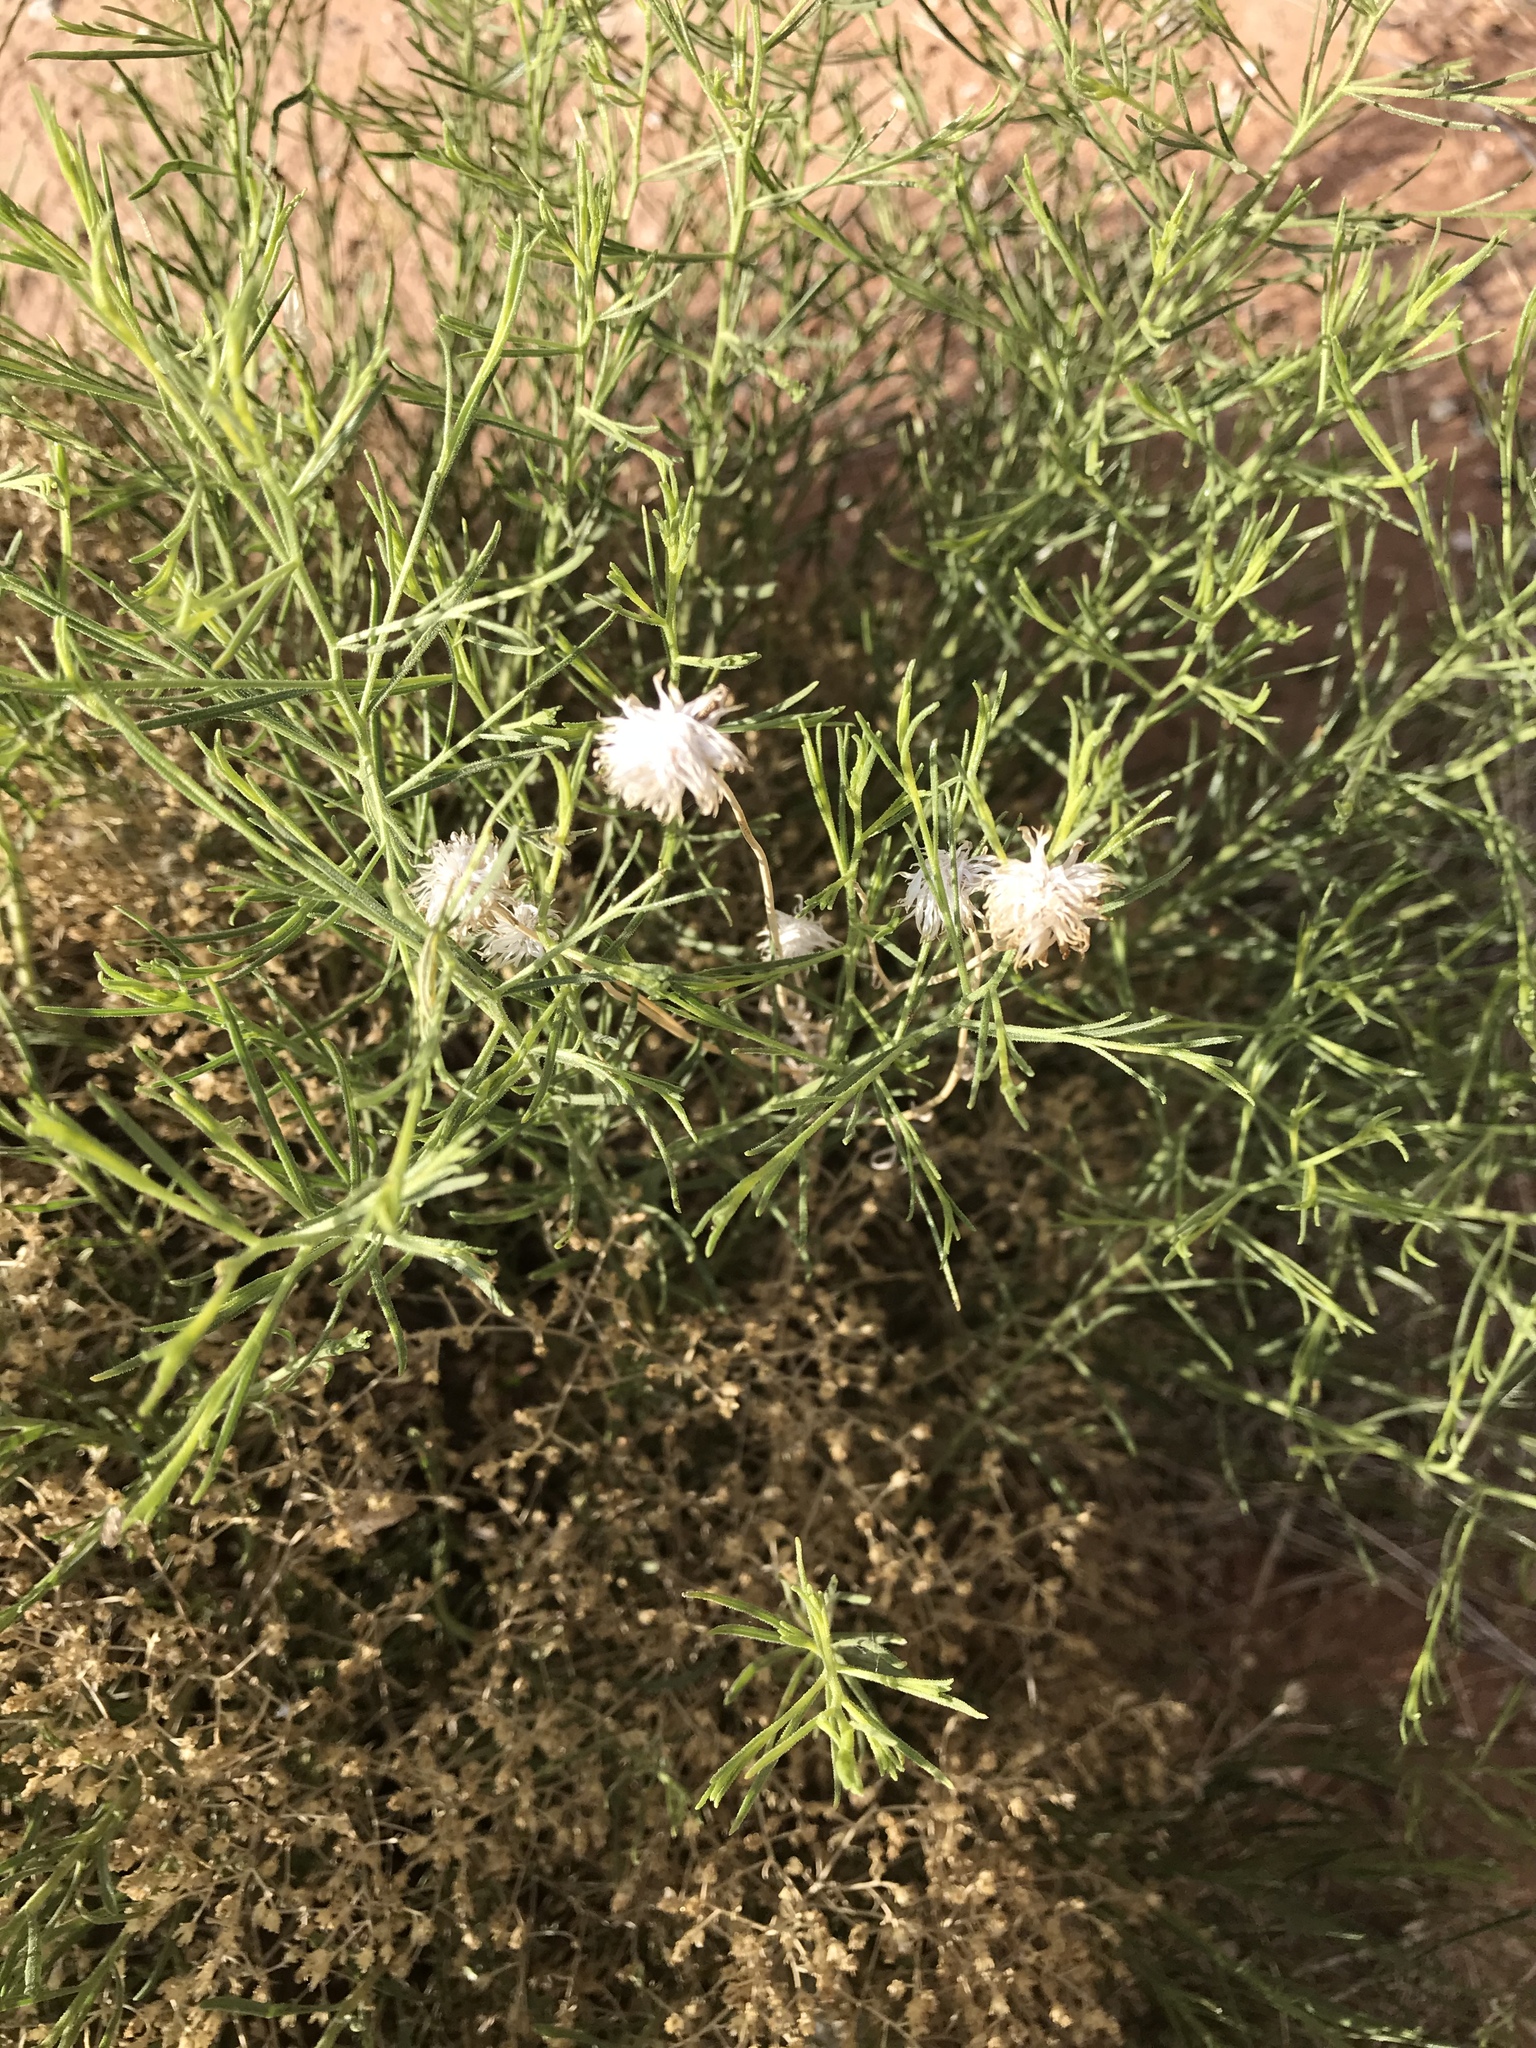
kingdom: Plantae
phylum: Tracheophyta
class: Magnoliopsida
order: Asterales
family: Asteraceae
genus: Verbesina
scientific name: Verbesina encelioides
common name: Golden crownbeard
